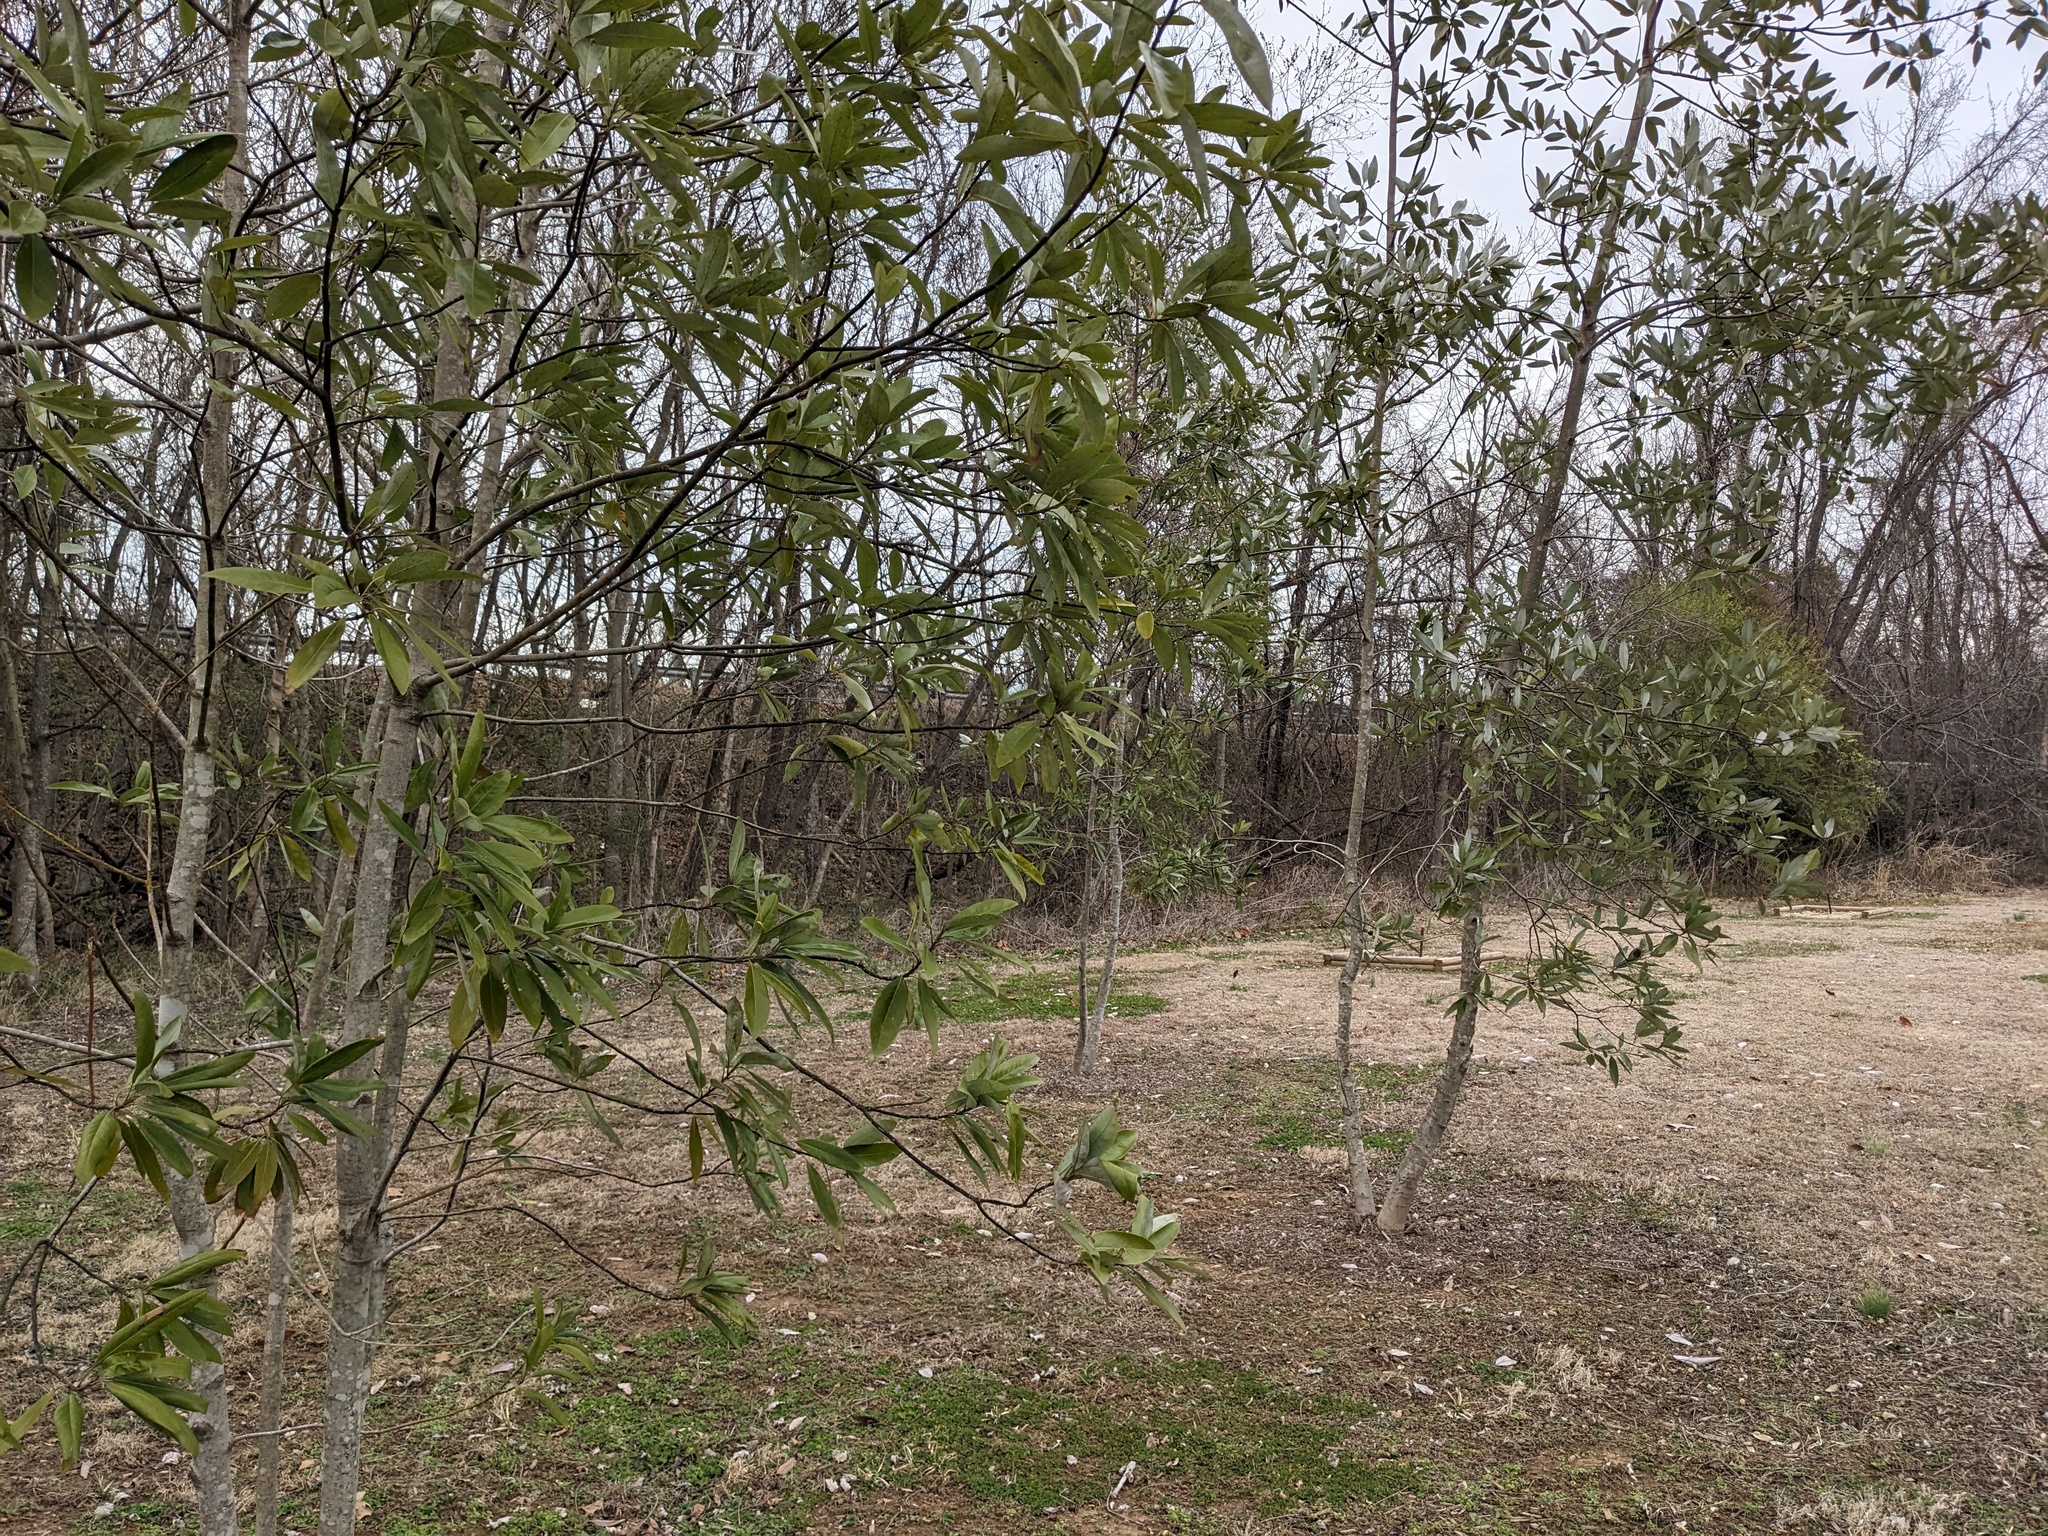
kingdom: Plantae
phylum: Tracheophyta
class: Magnoliopsida
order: Magnoliales
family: Magnoliaceae
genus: Magnolia
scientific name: Magnolia virginiana
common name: Swamp bay
